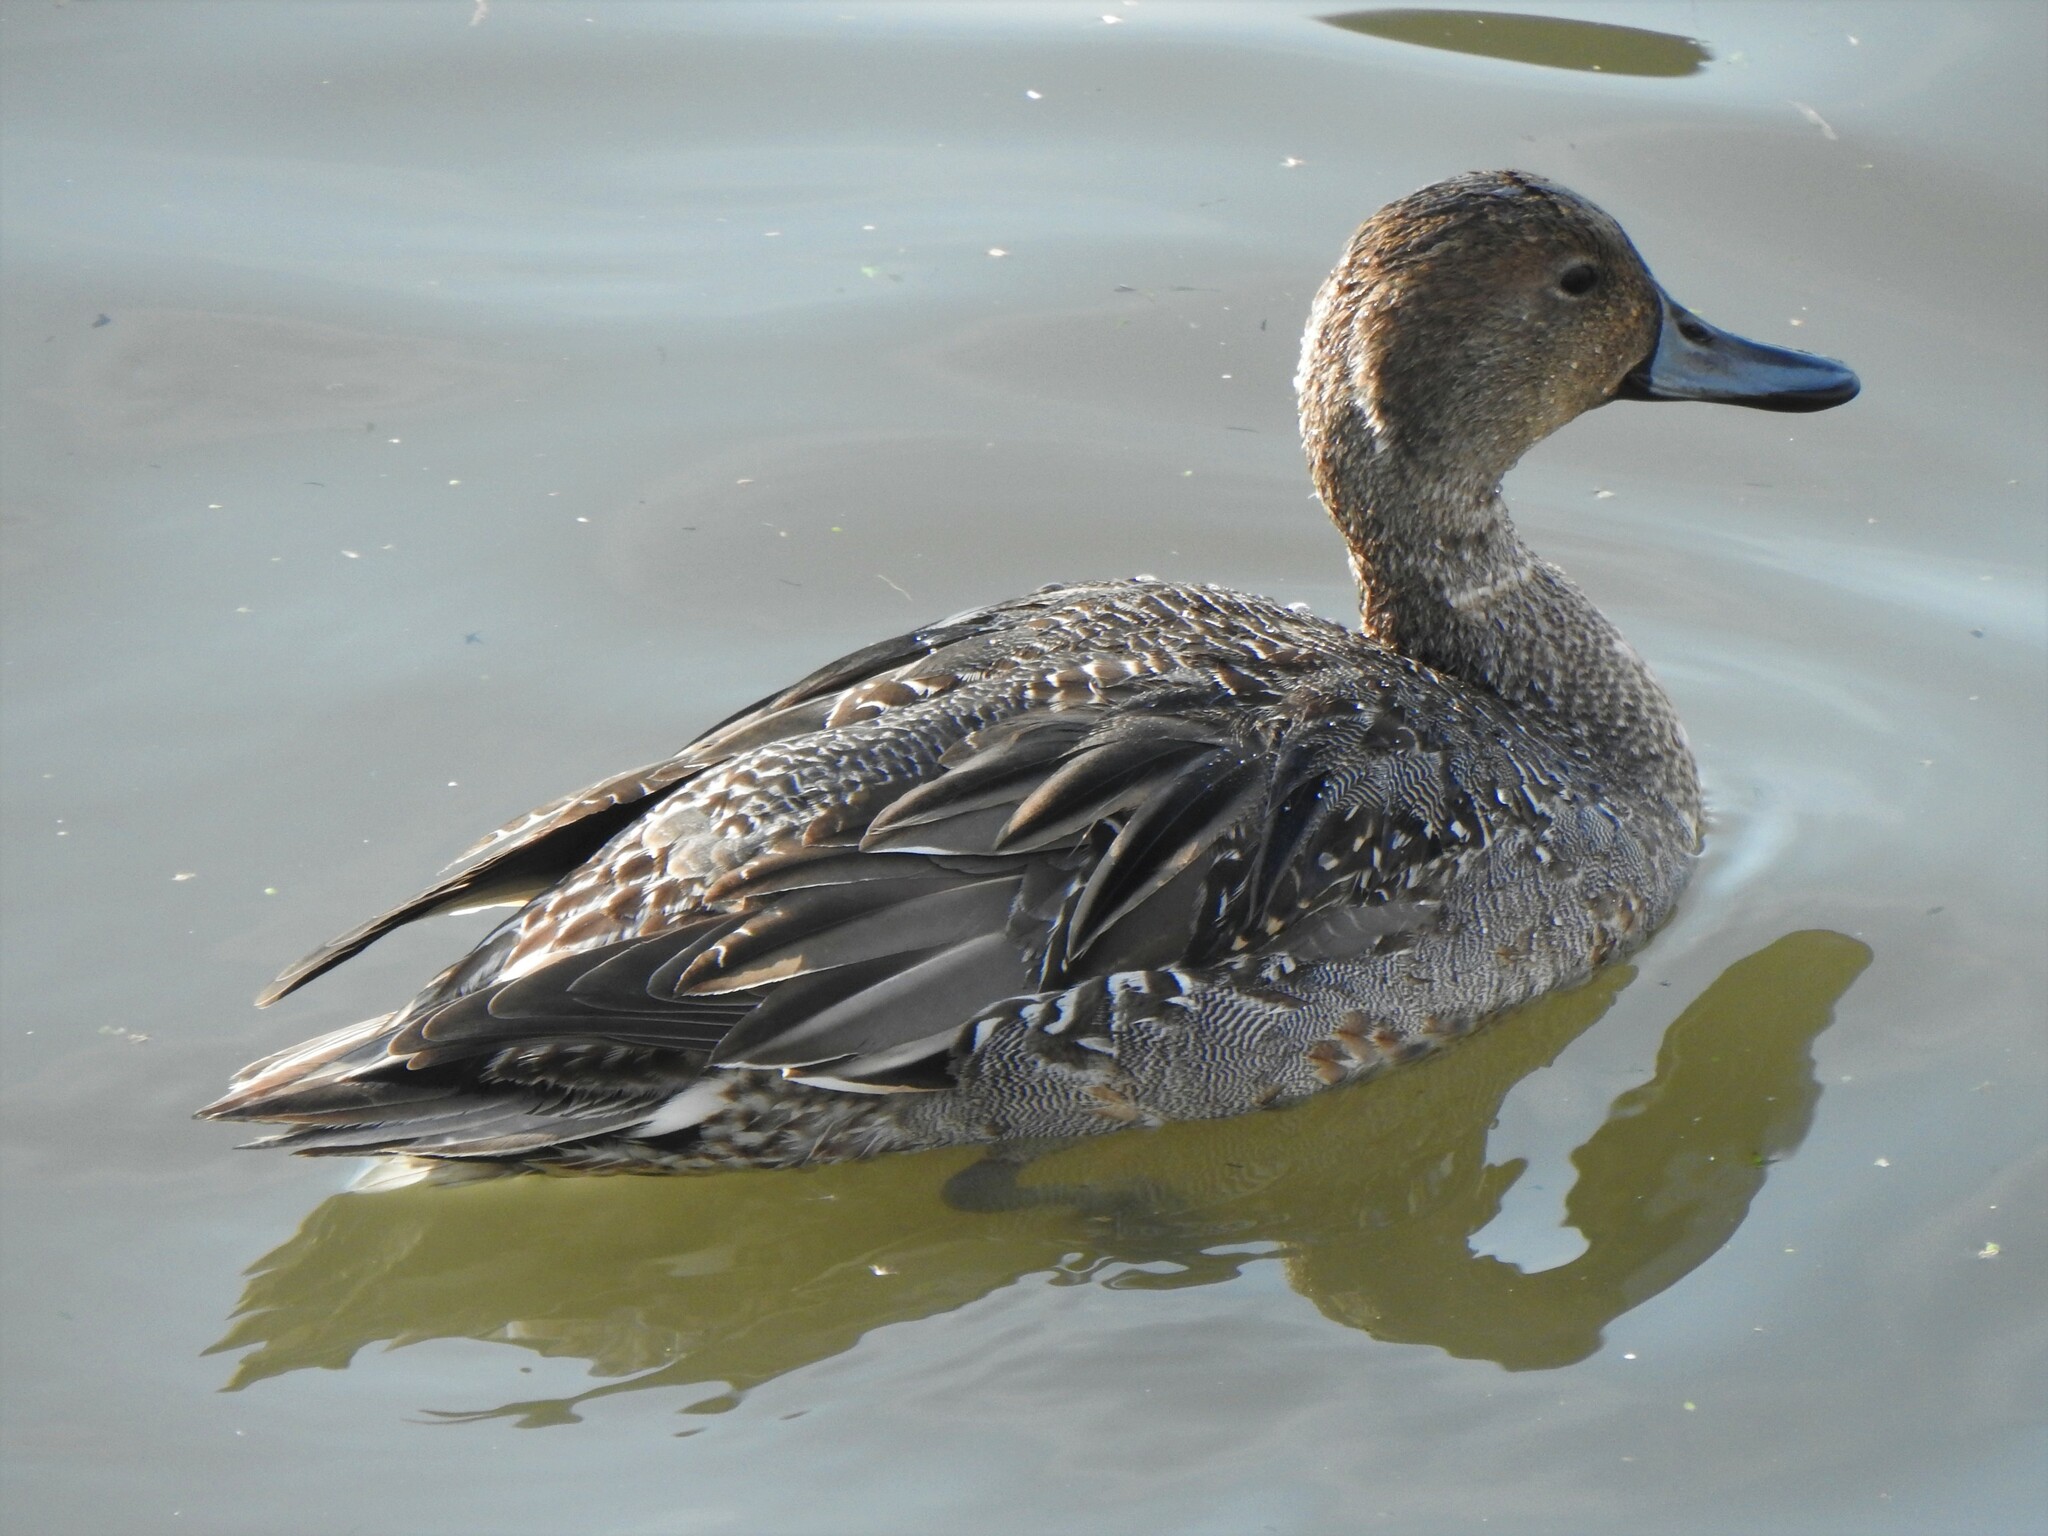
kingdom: Animalia
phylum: Chordata
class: Aves
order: Anseriformes
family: Anatidae
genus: Anas
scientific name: Anas acuta
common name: Northern pintail
